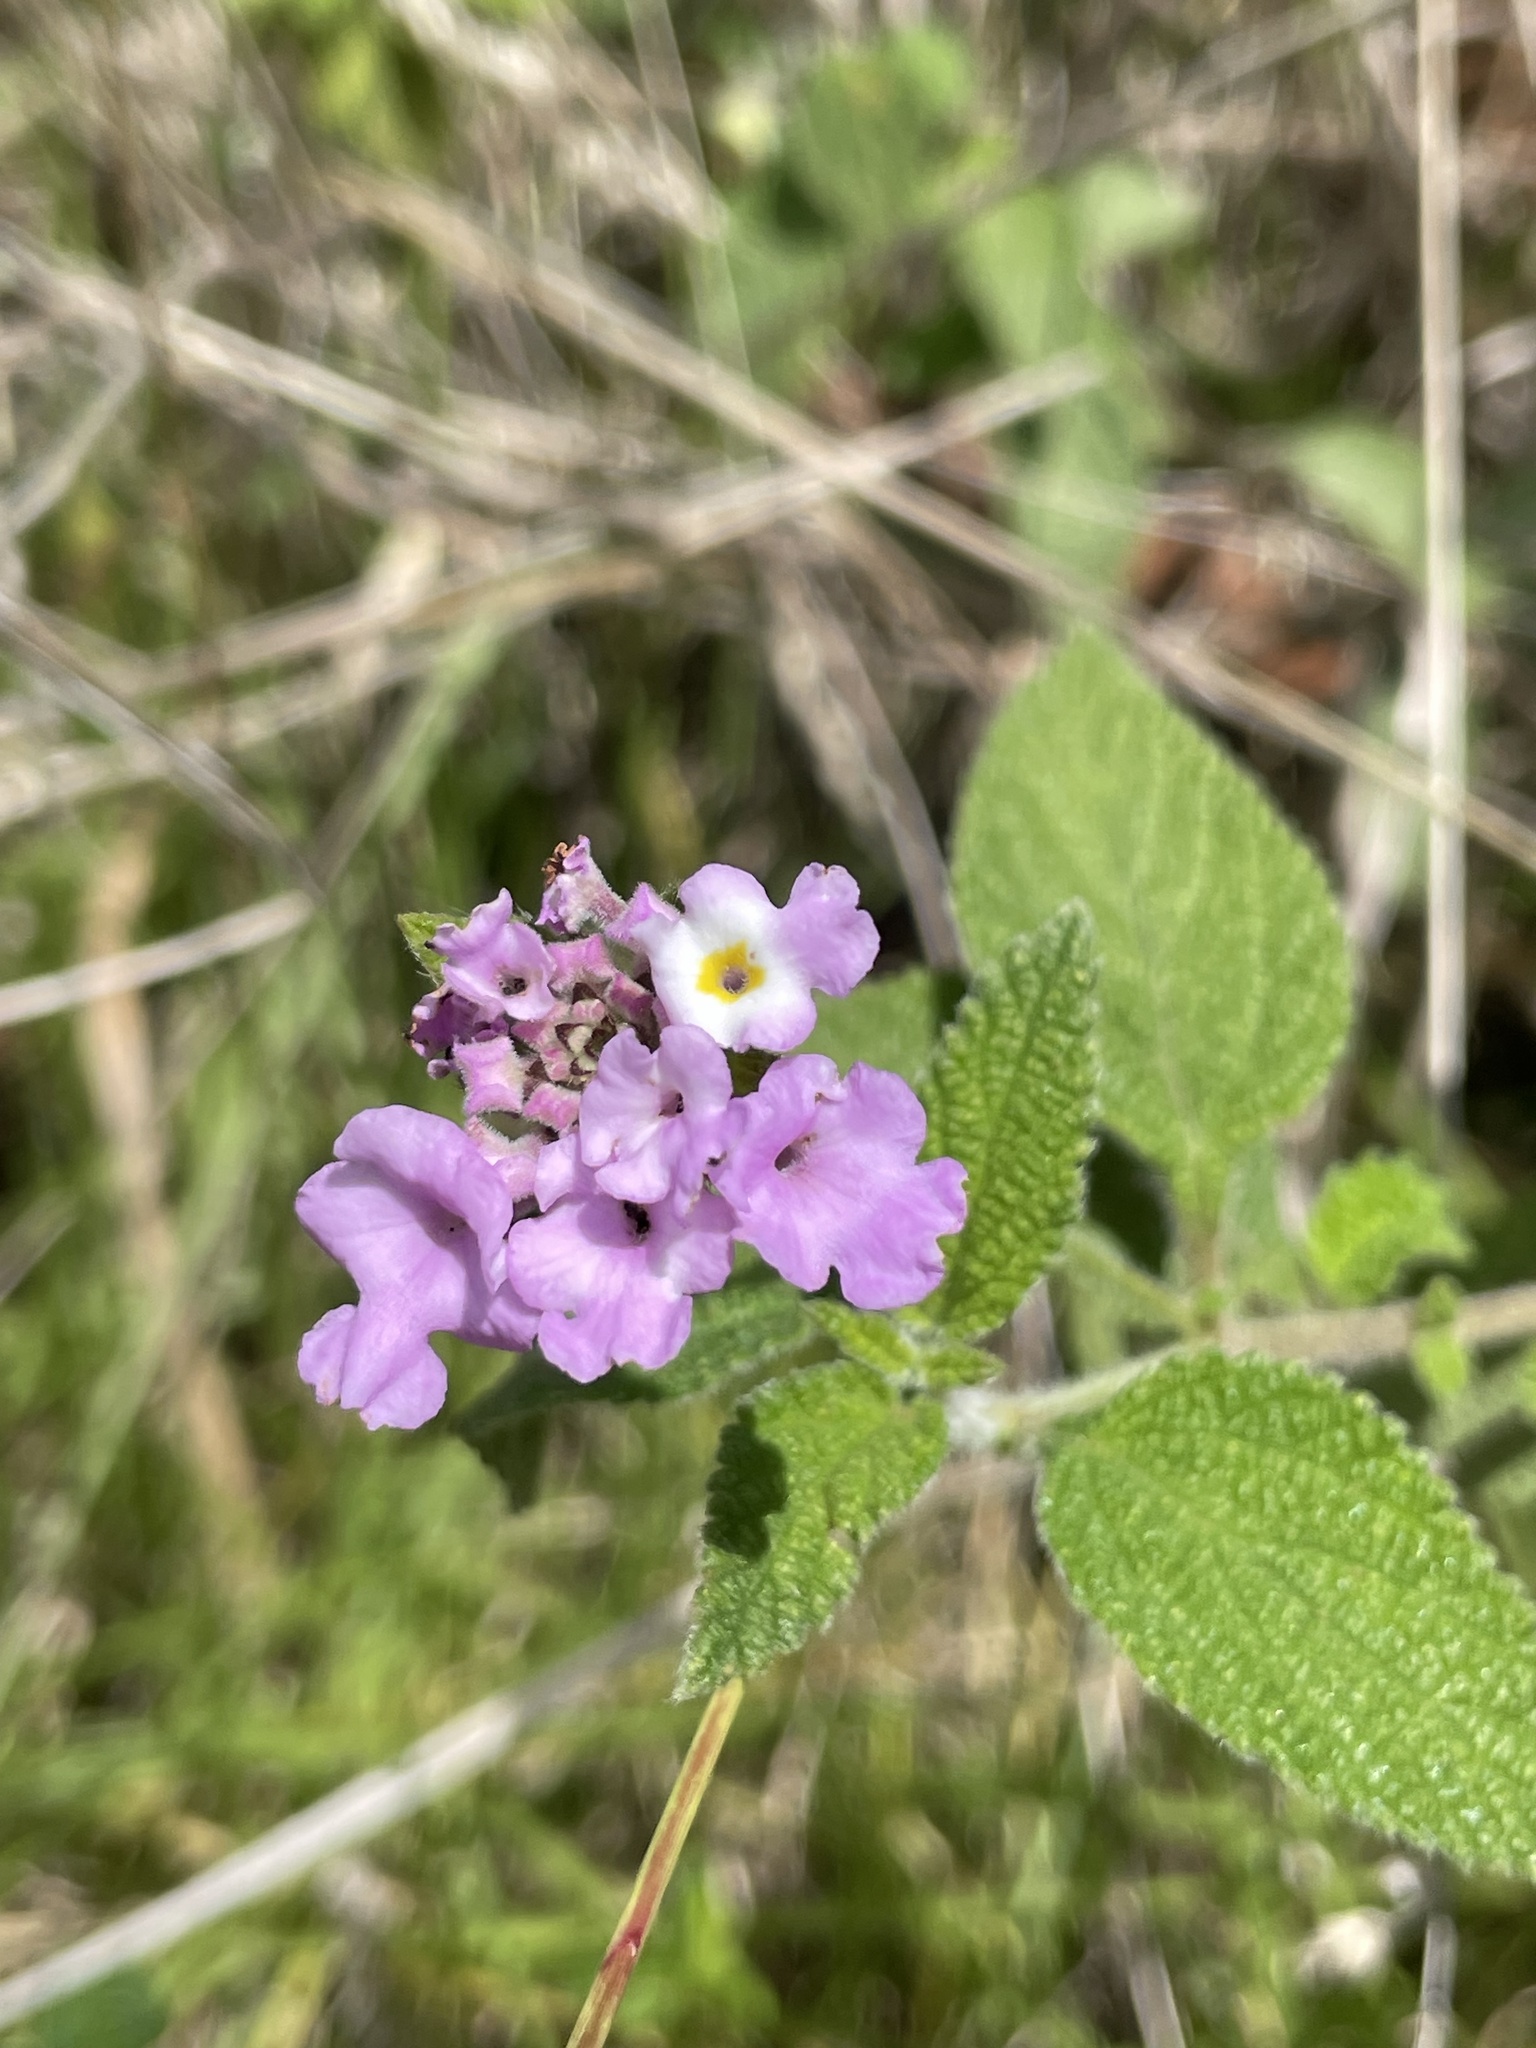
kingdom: Plantae
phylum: Tracheophyta
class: Magnoliopsida
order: Lamiales
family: Verbenaceae
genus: Lantana
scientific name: Lantana rugulosa
